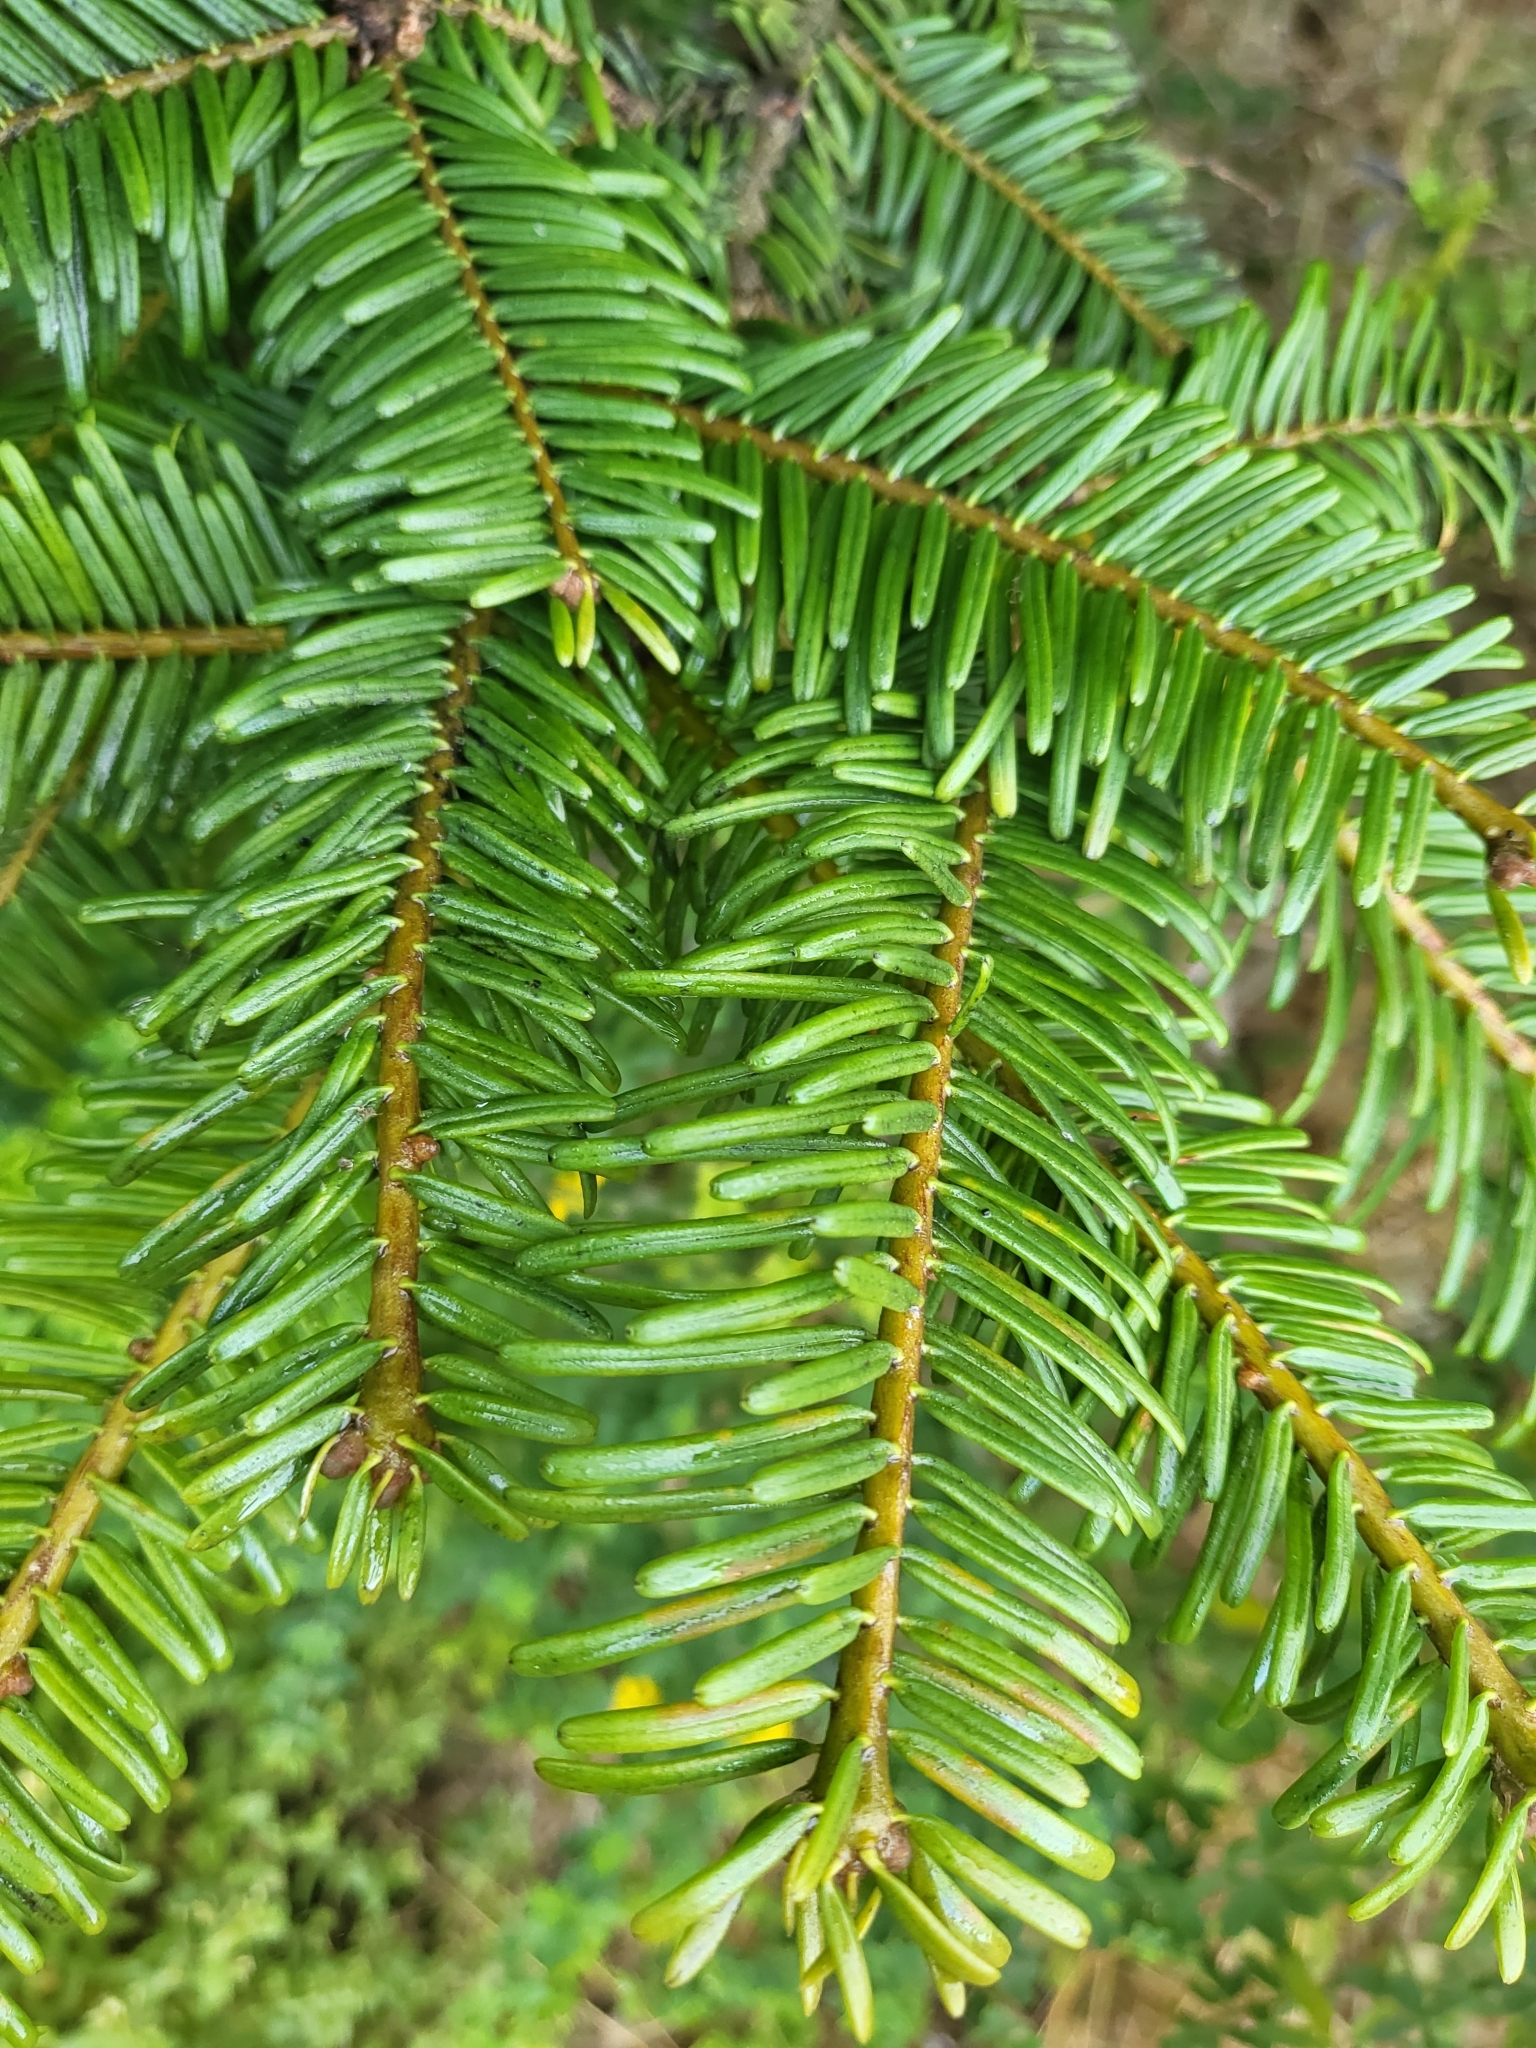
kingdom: Plantae
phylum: Tracheophyta
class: Pinopsida
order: Pinales
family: Pinaceae
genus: Abies
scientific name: Abies grandis
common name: Giant fir
